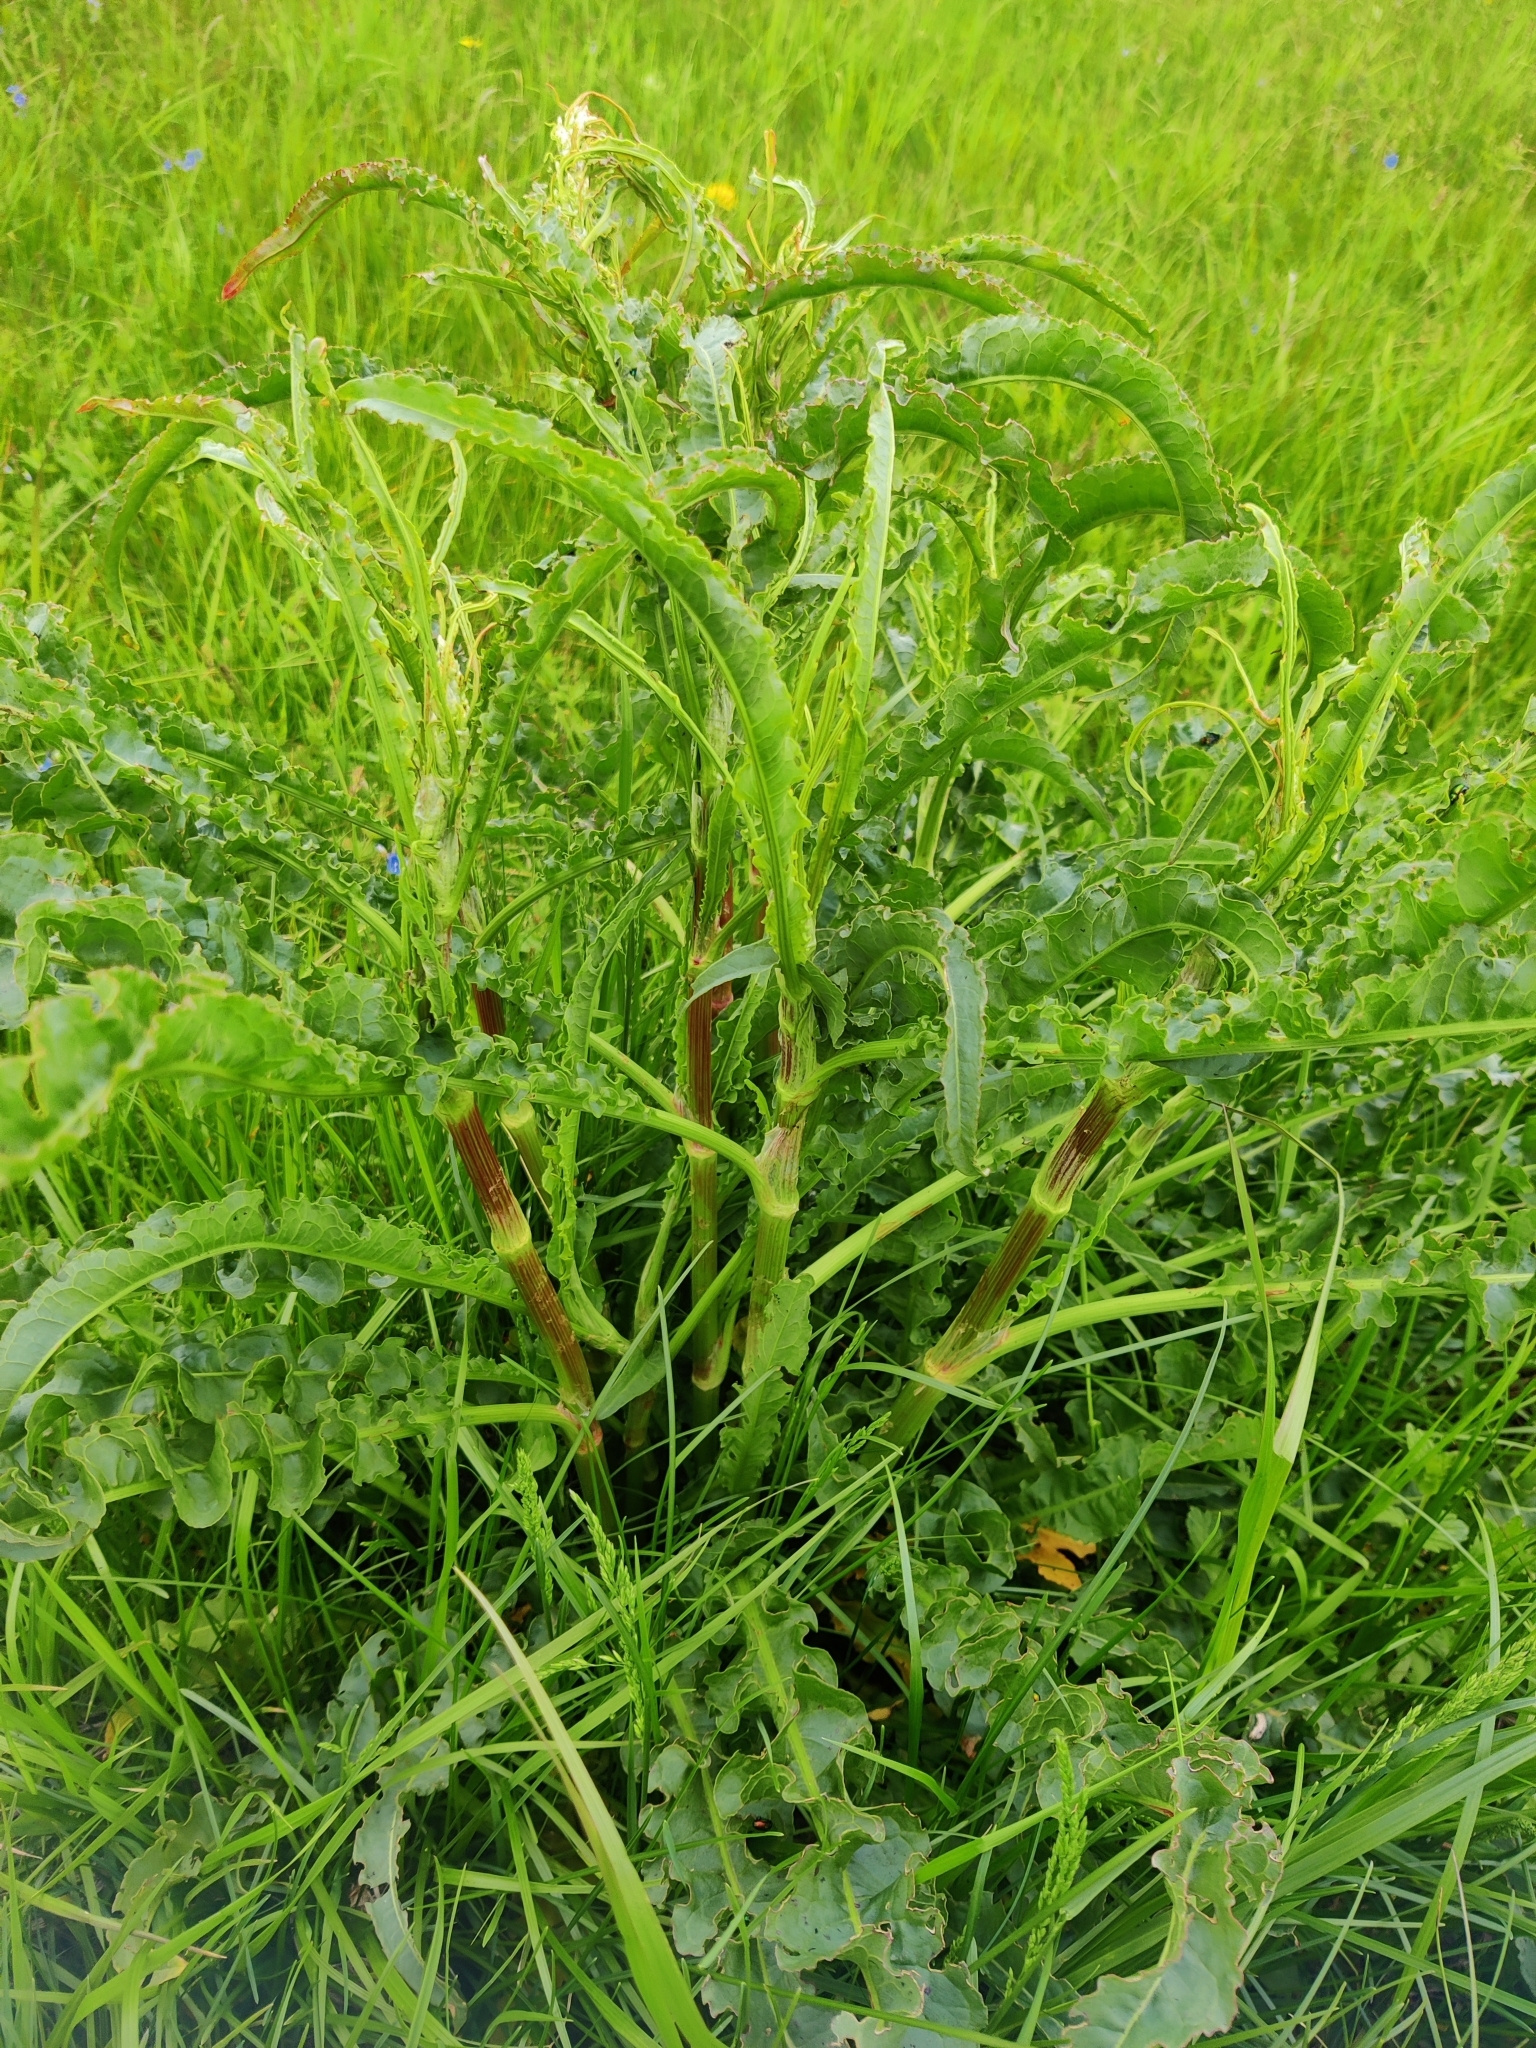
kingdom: Plantae
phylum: Tracheophyta
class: Magnoliopsida
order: Caryophyllales
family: Polygonaceae
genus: Rumex
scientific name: Rumex pseudonatronatus
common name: Field dock
